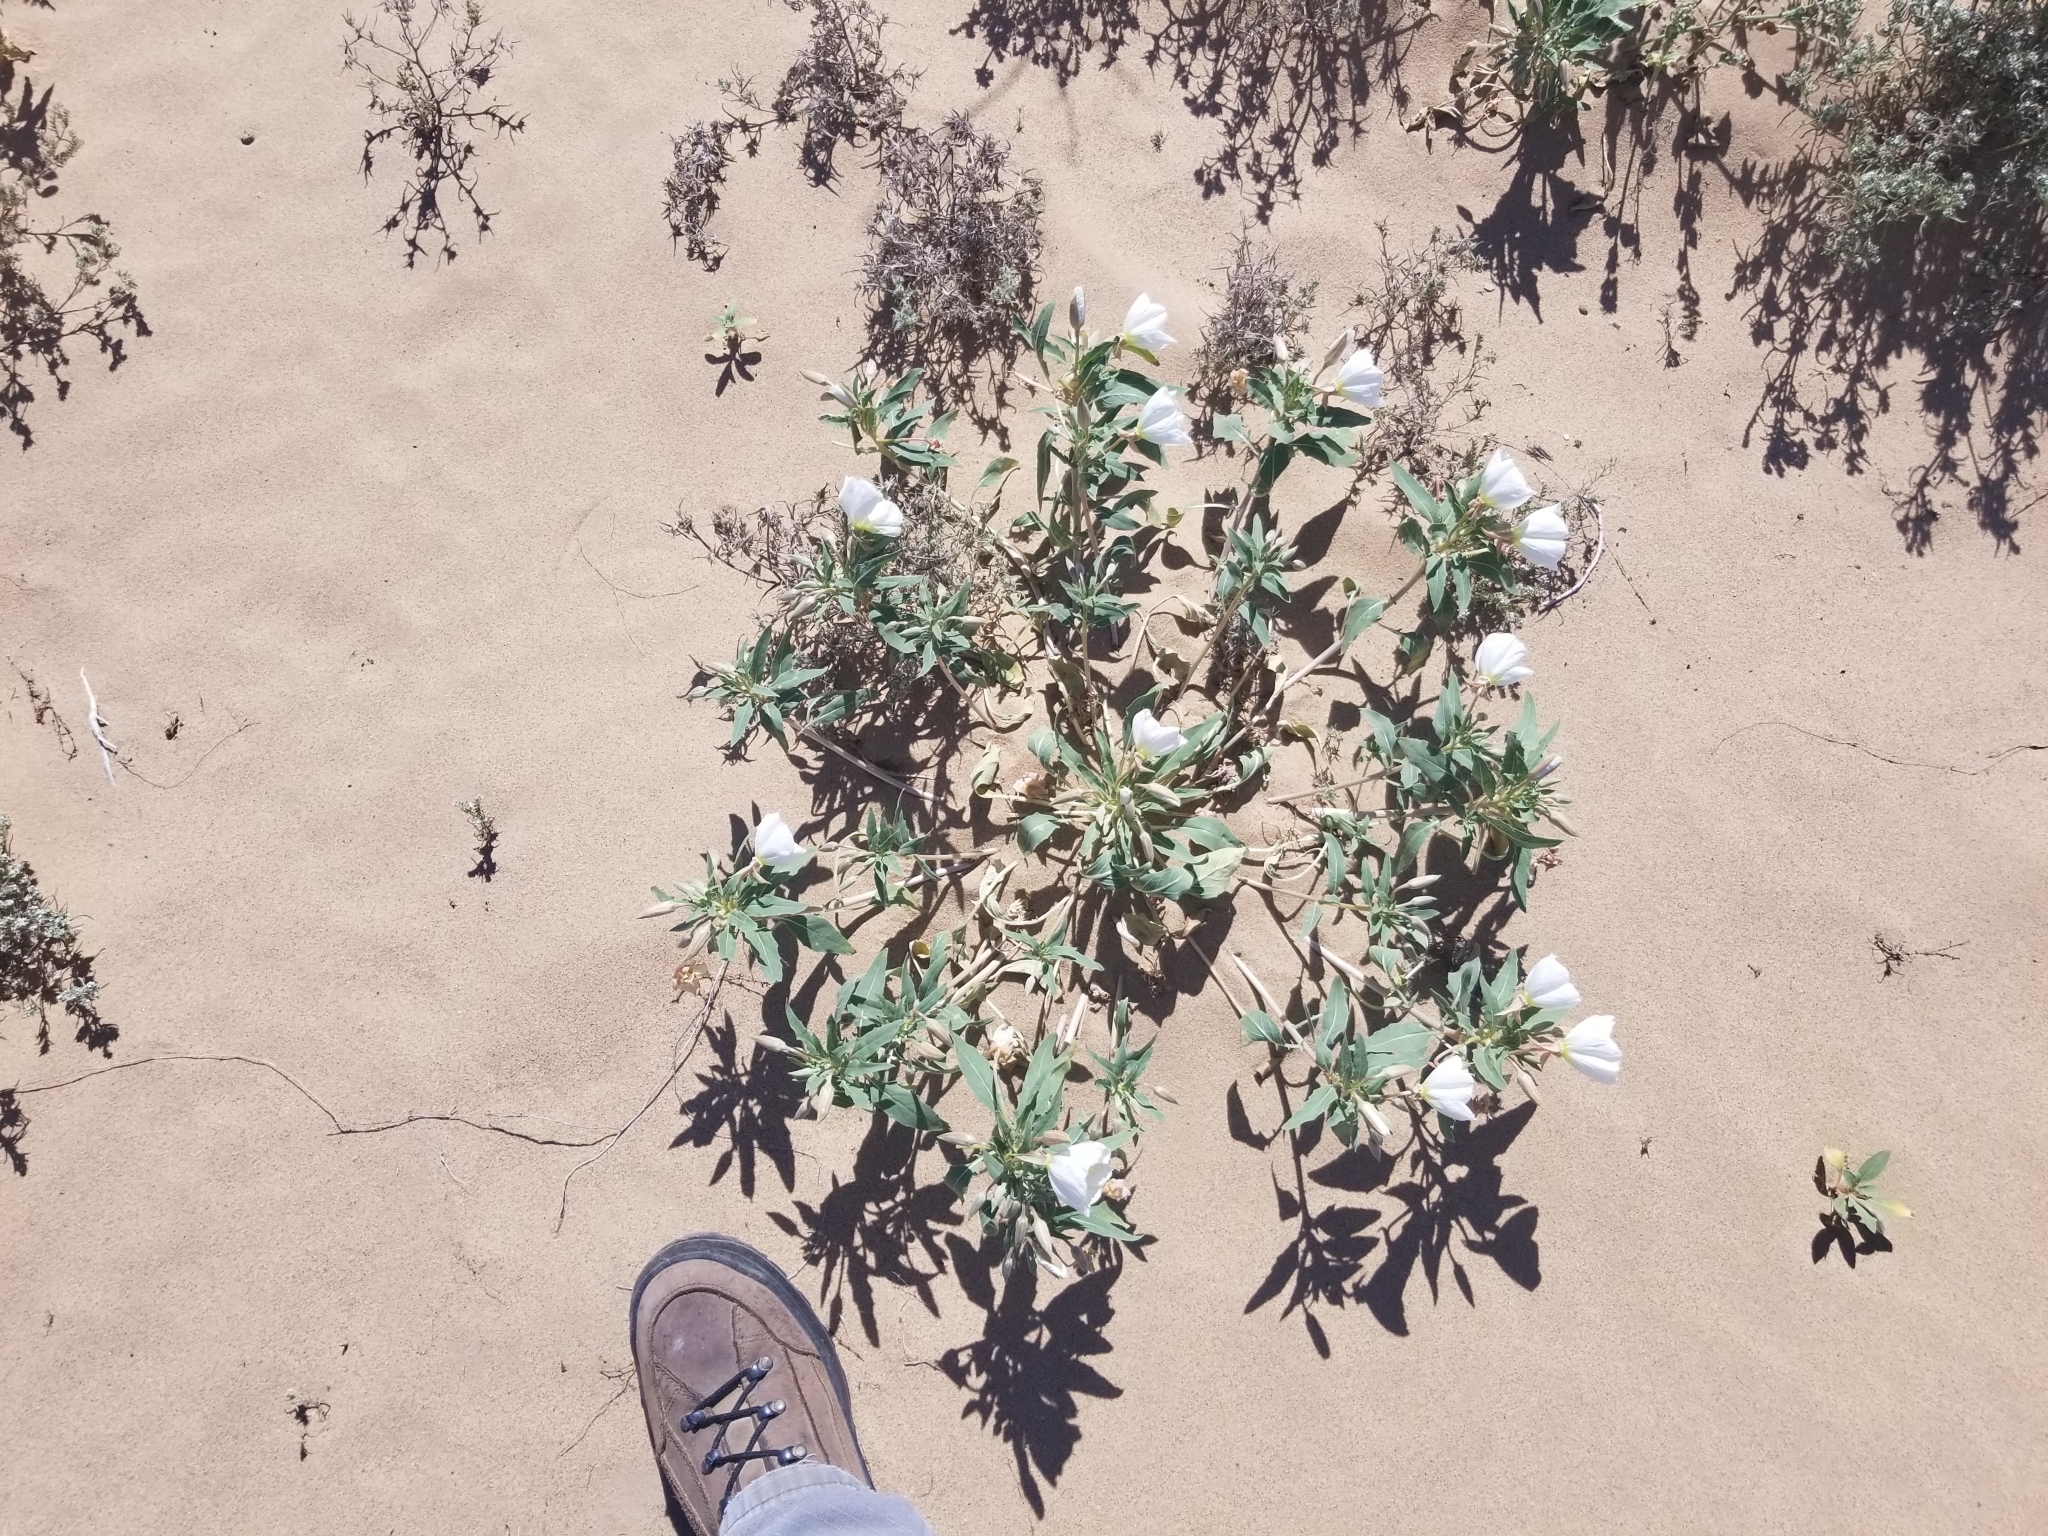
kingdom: Plantae
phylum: Tracheophyta
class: Magnoliopsida
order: Myrtales
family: Onagraceae
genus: Oenothera
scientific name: Oenothera deltoides
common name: Basket evening-primrose
